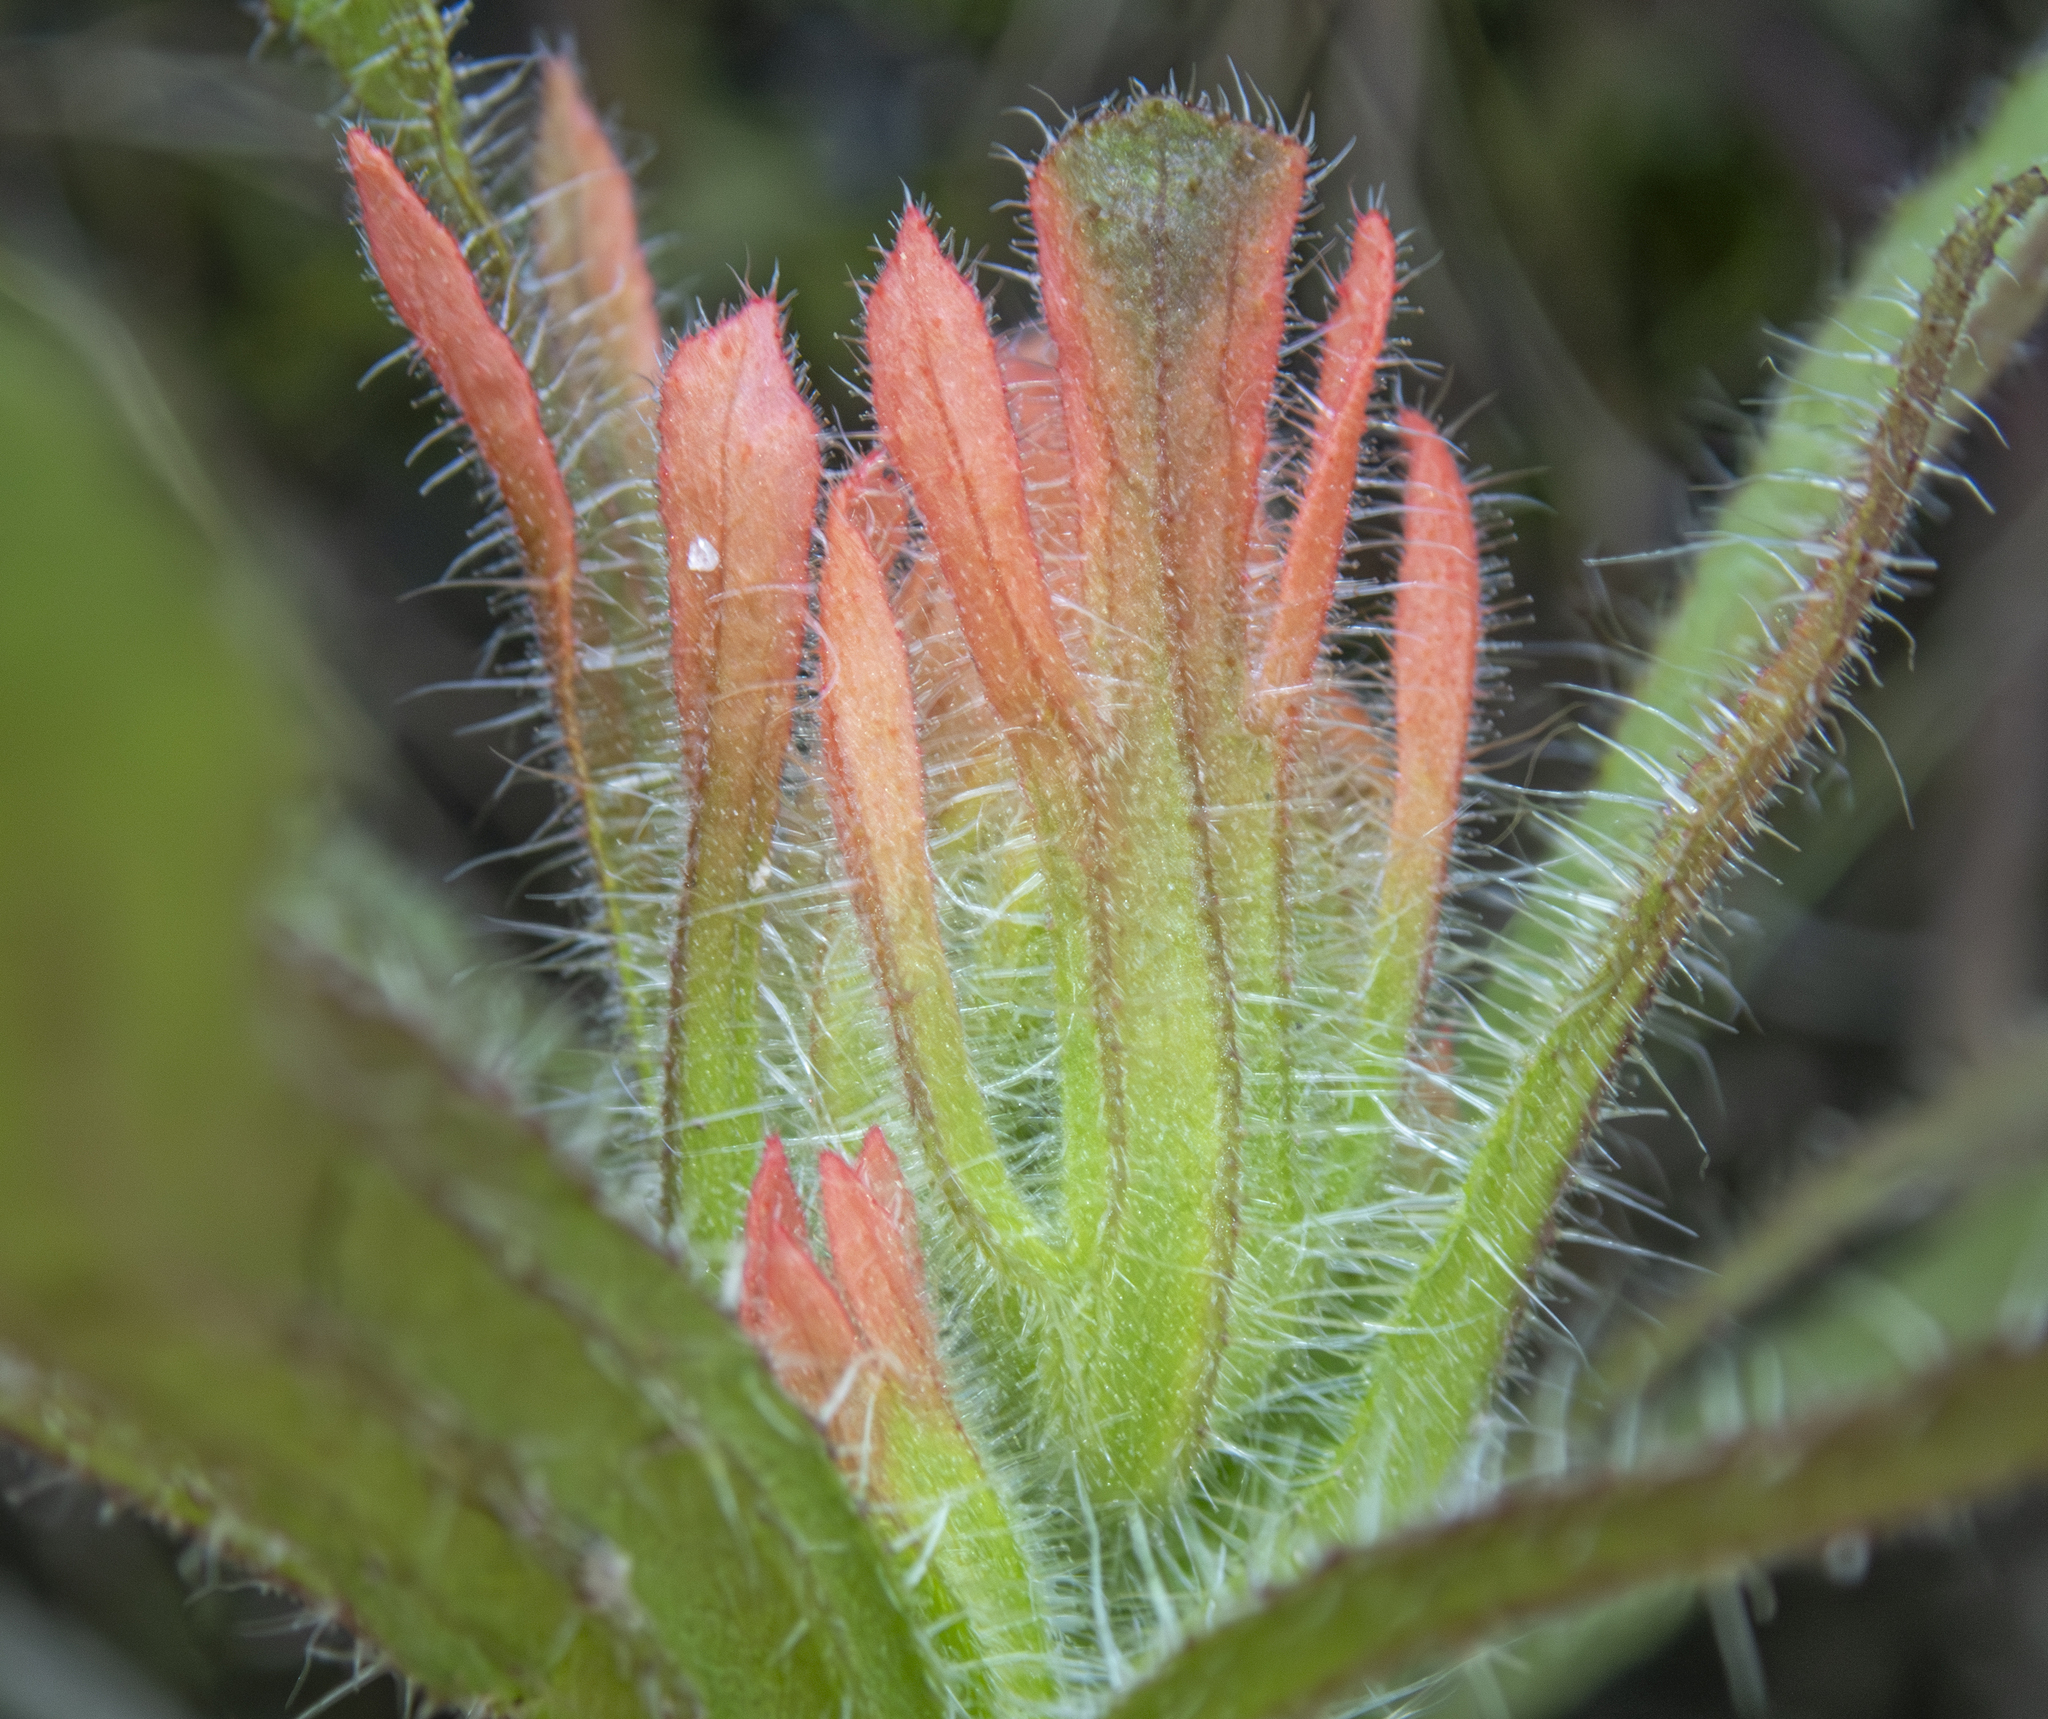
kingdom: Plantae
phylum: Tracheophyta
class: Magnoliopsida
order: Lamiales
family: Orobanchaceae
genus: Castilleja
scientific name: Castilleja affinis
